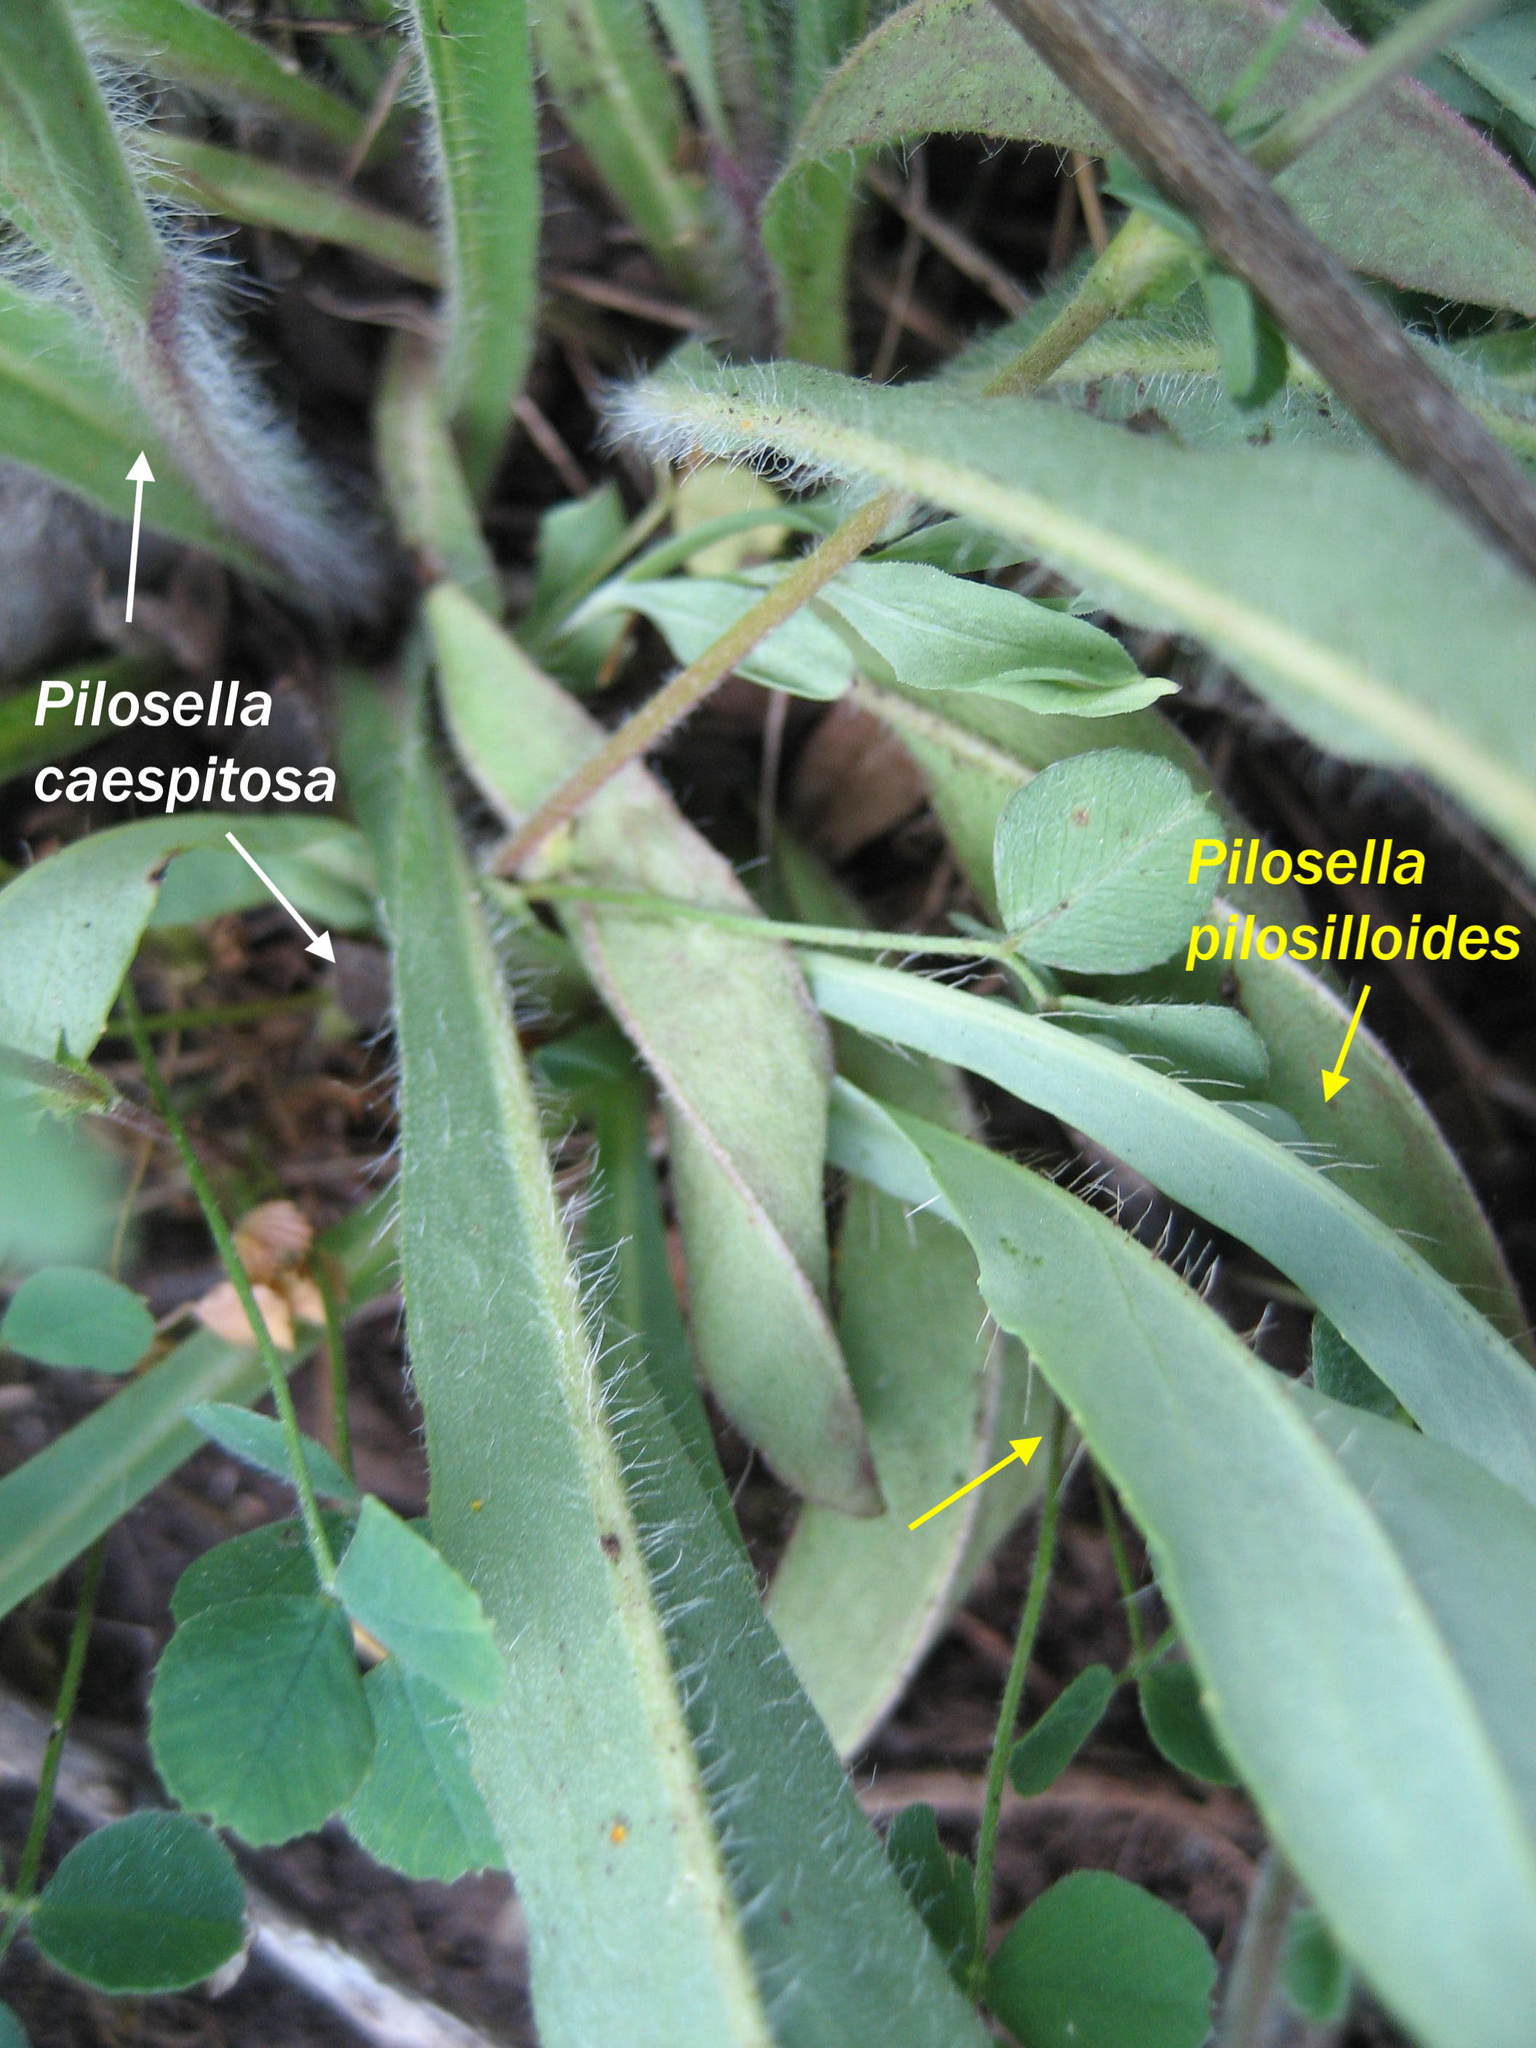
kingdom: Plantae
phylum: Tracheophyta
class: Magnoliopsida
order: Asterales
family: Asteraceae
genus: Pilosella
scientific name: Pilosella caespitosa
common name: Yellow fox-and-cubs
